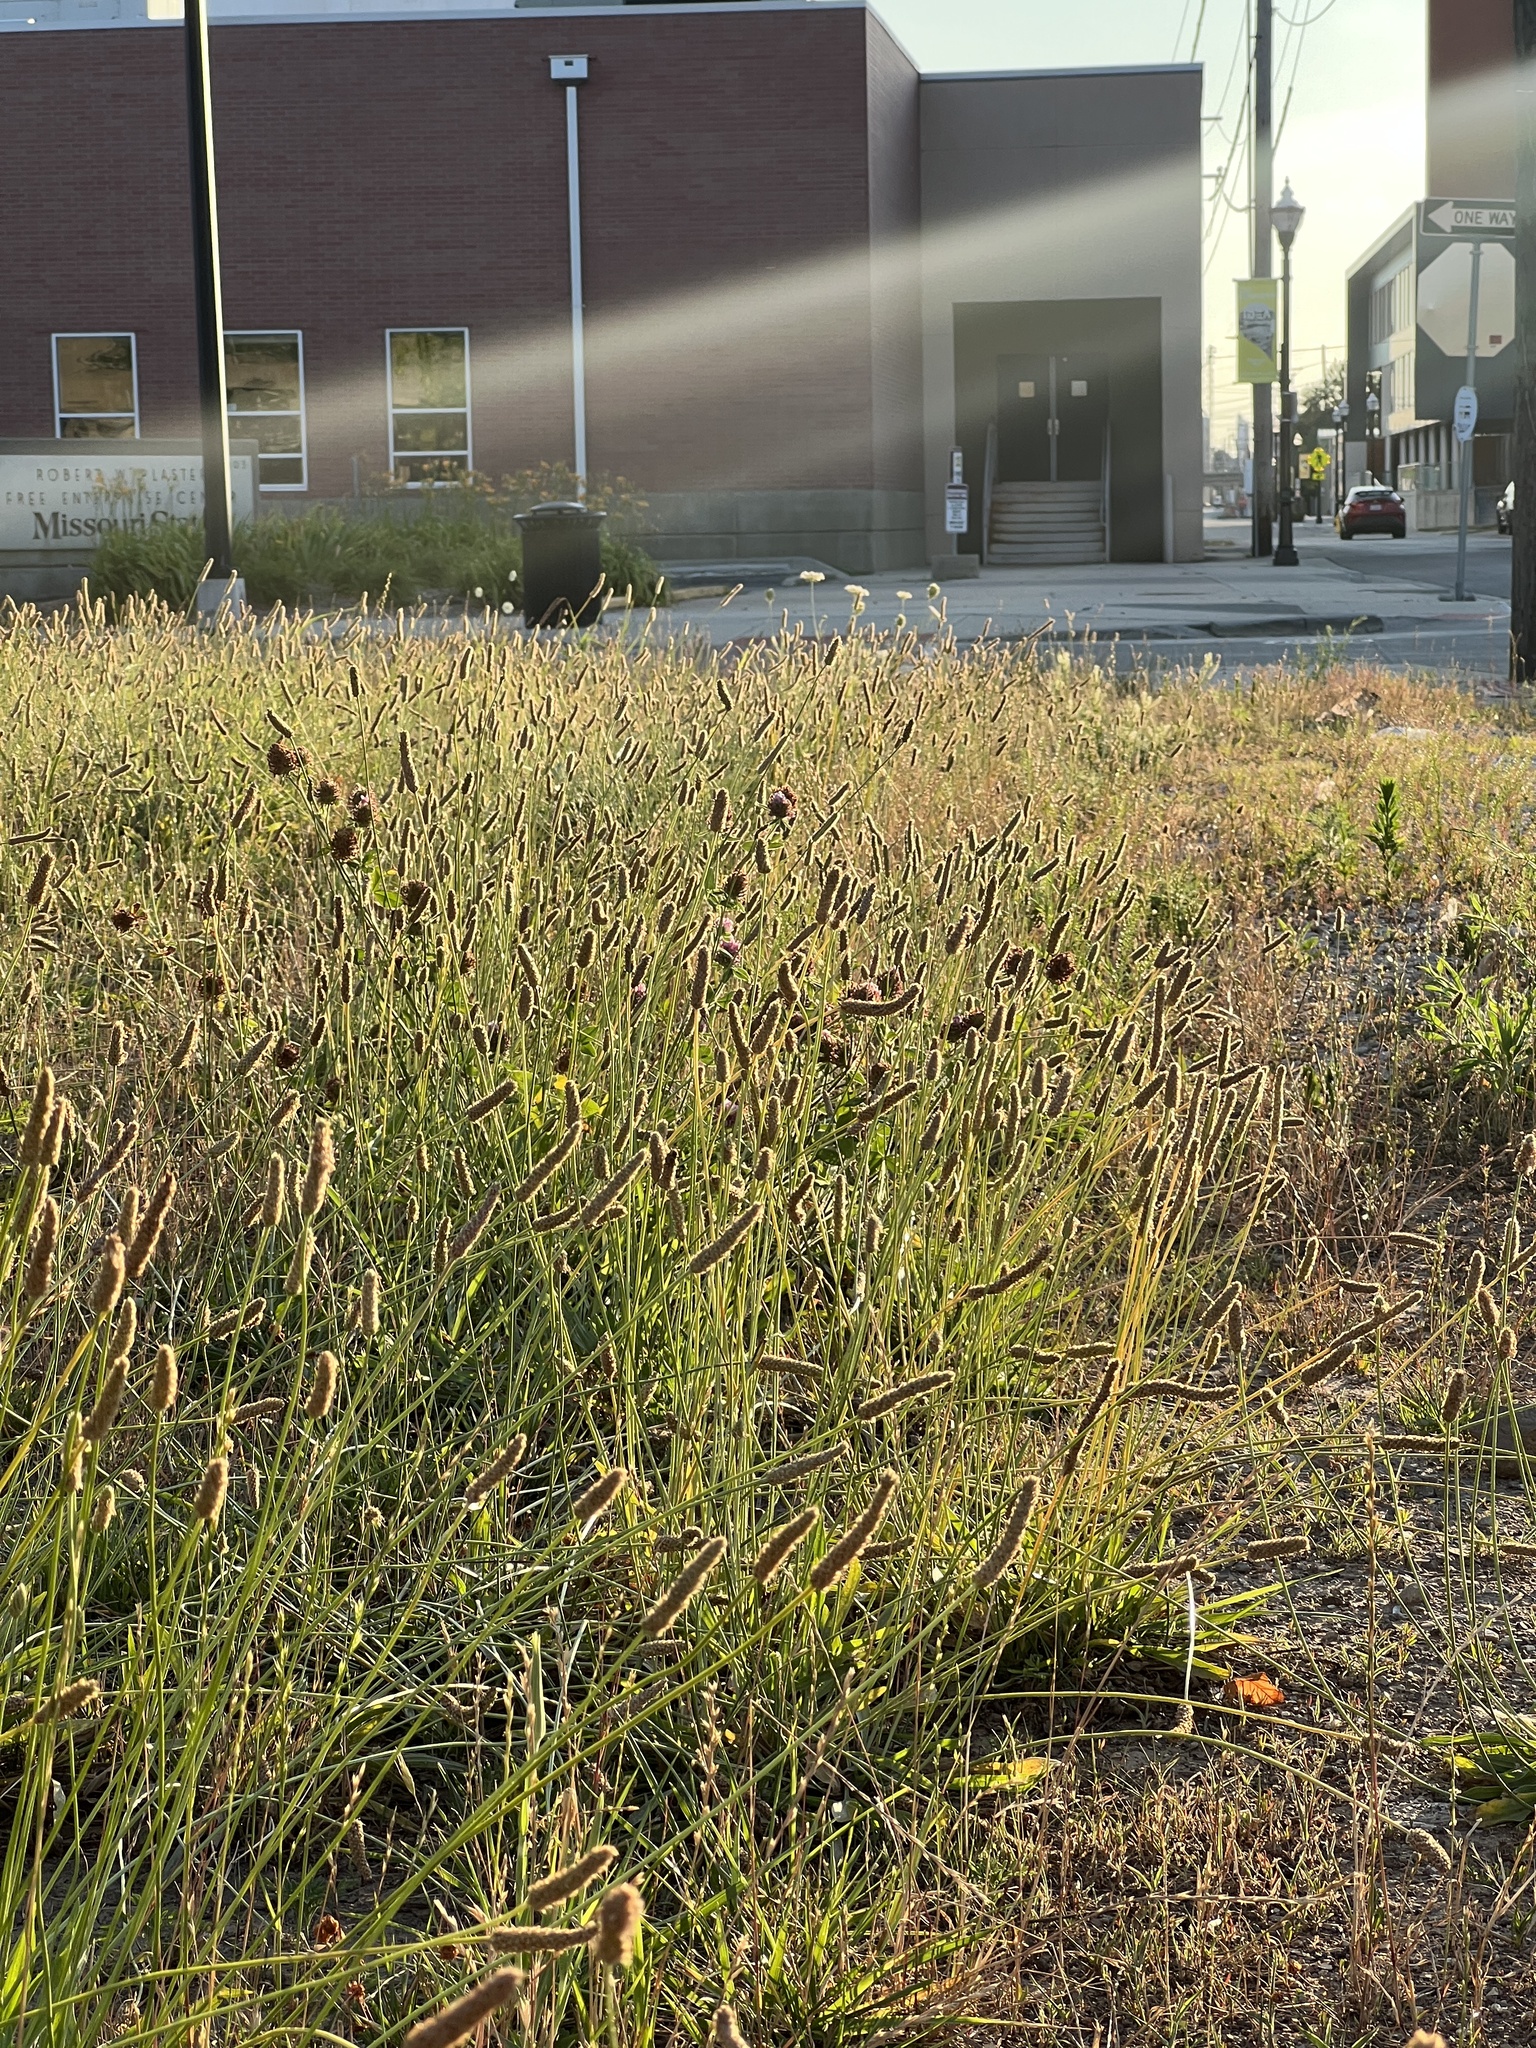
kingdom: Plantae
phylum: Tracheophyta
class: Magnoliopsida
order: Lamiales
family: Plantaginaceae
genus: Plantago
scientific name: Plantago lanceolata
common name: Ribwort plantain
